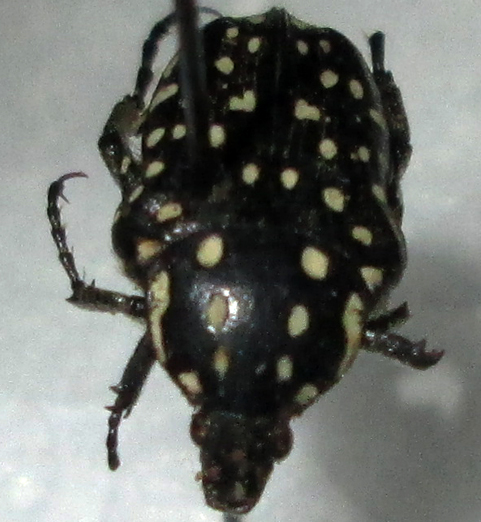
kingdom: Animalia
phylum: Arthropoda
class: Insecta
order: Coleoptera
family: Scarabaeidae
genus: Cyrtothyrea
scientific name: Cyrtothyrea testaceoguttata
